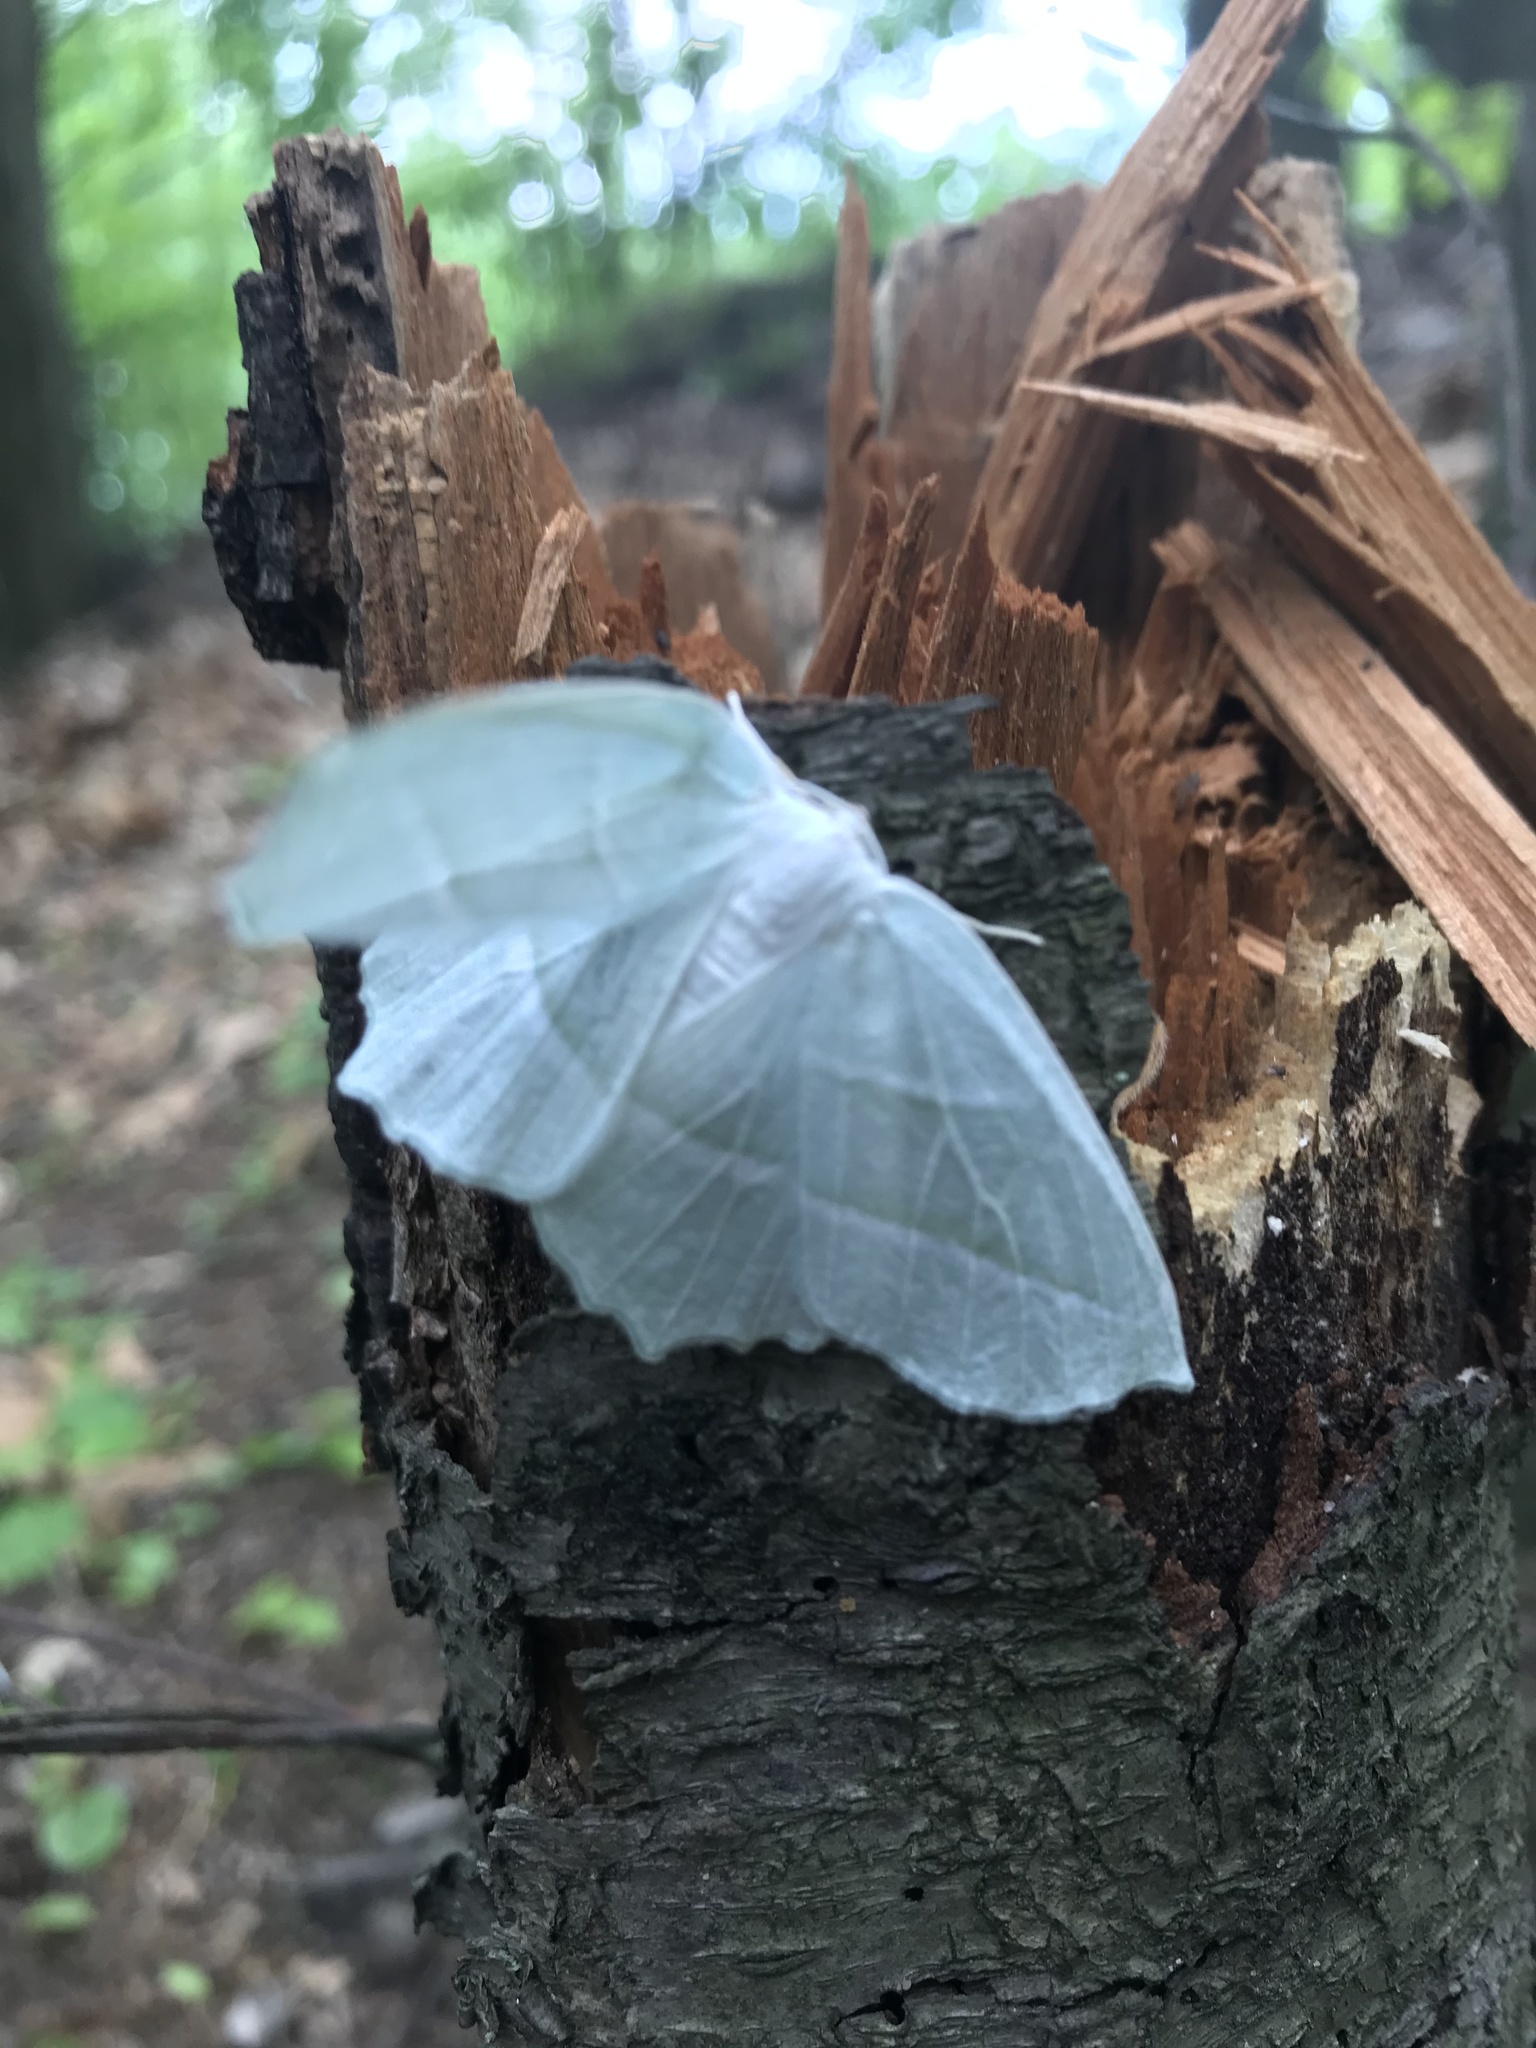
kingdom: Animalia
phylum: Arthropoda
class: Insecta
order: Lepidoptera
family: Geometridae
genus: Campaea
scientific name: Campaea perlata
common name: Fringed looper
